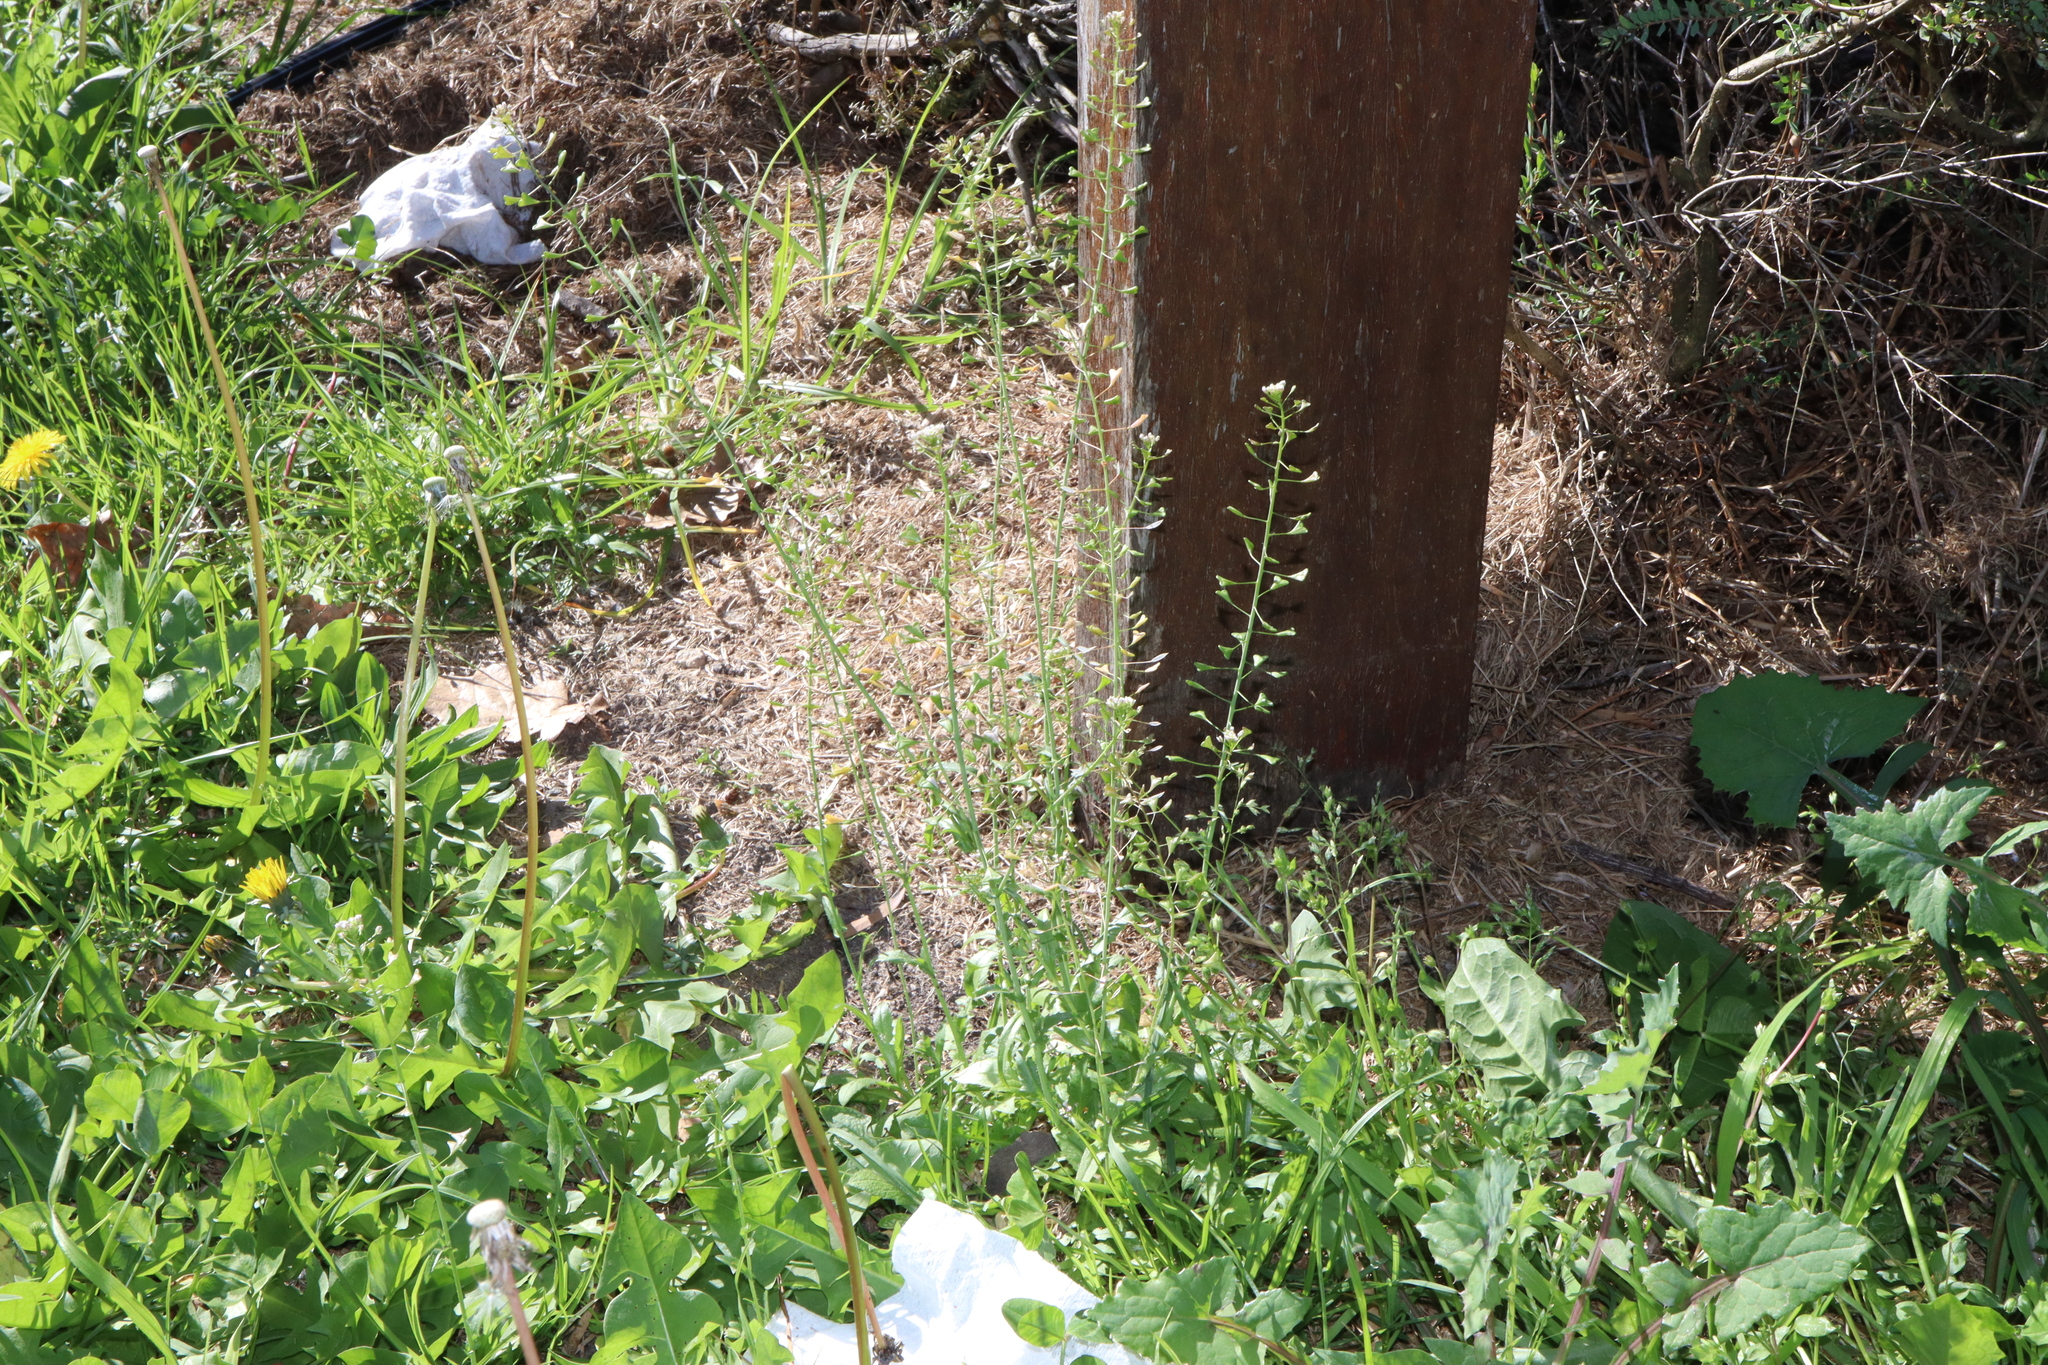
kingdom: Plantae
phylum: Tracheophyta
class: Magnoliopsida
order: Brassicales
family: Brassicaceae
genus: Capsella
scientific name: Capsella bursa-pastoris
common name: Shepherd's purse
